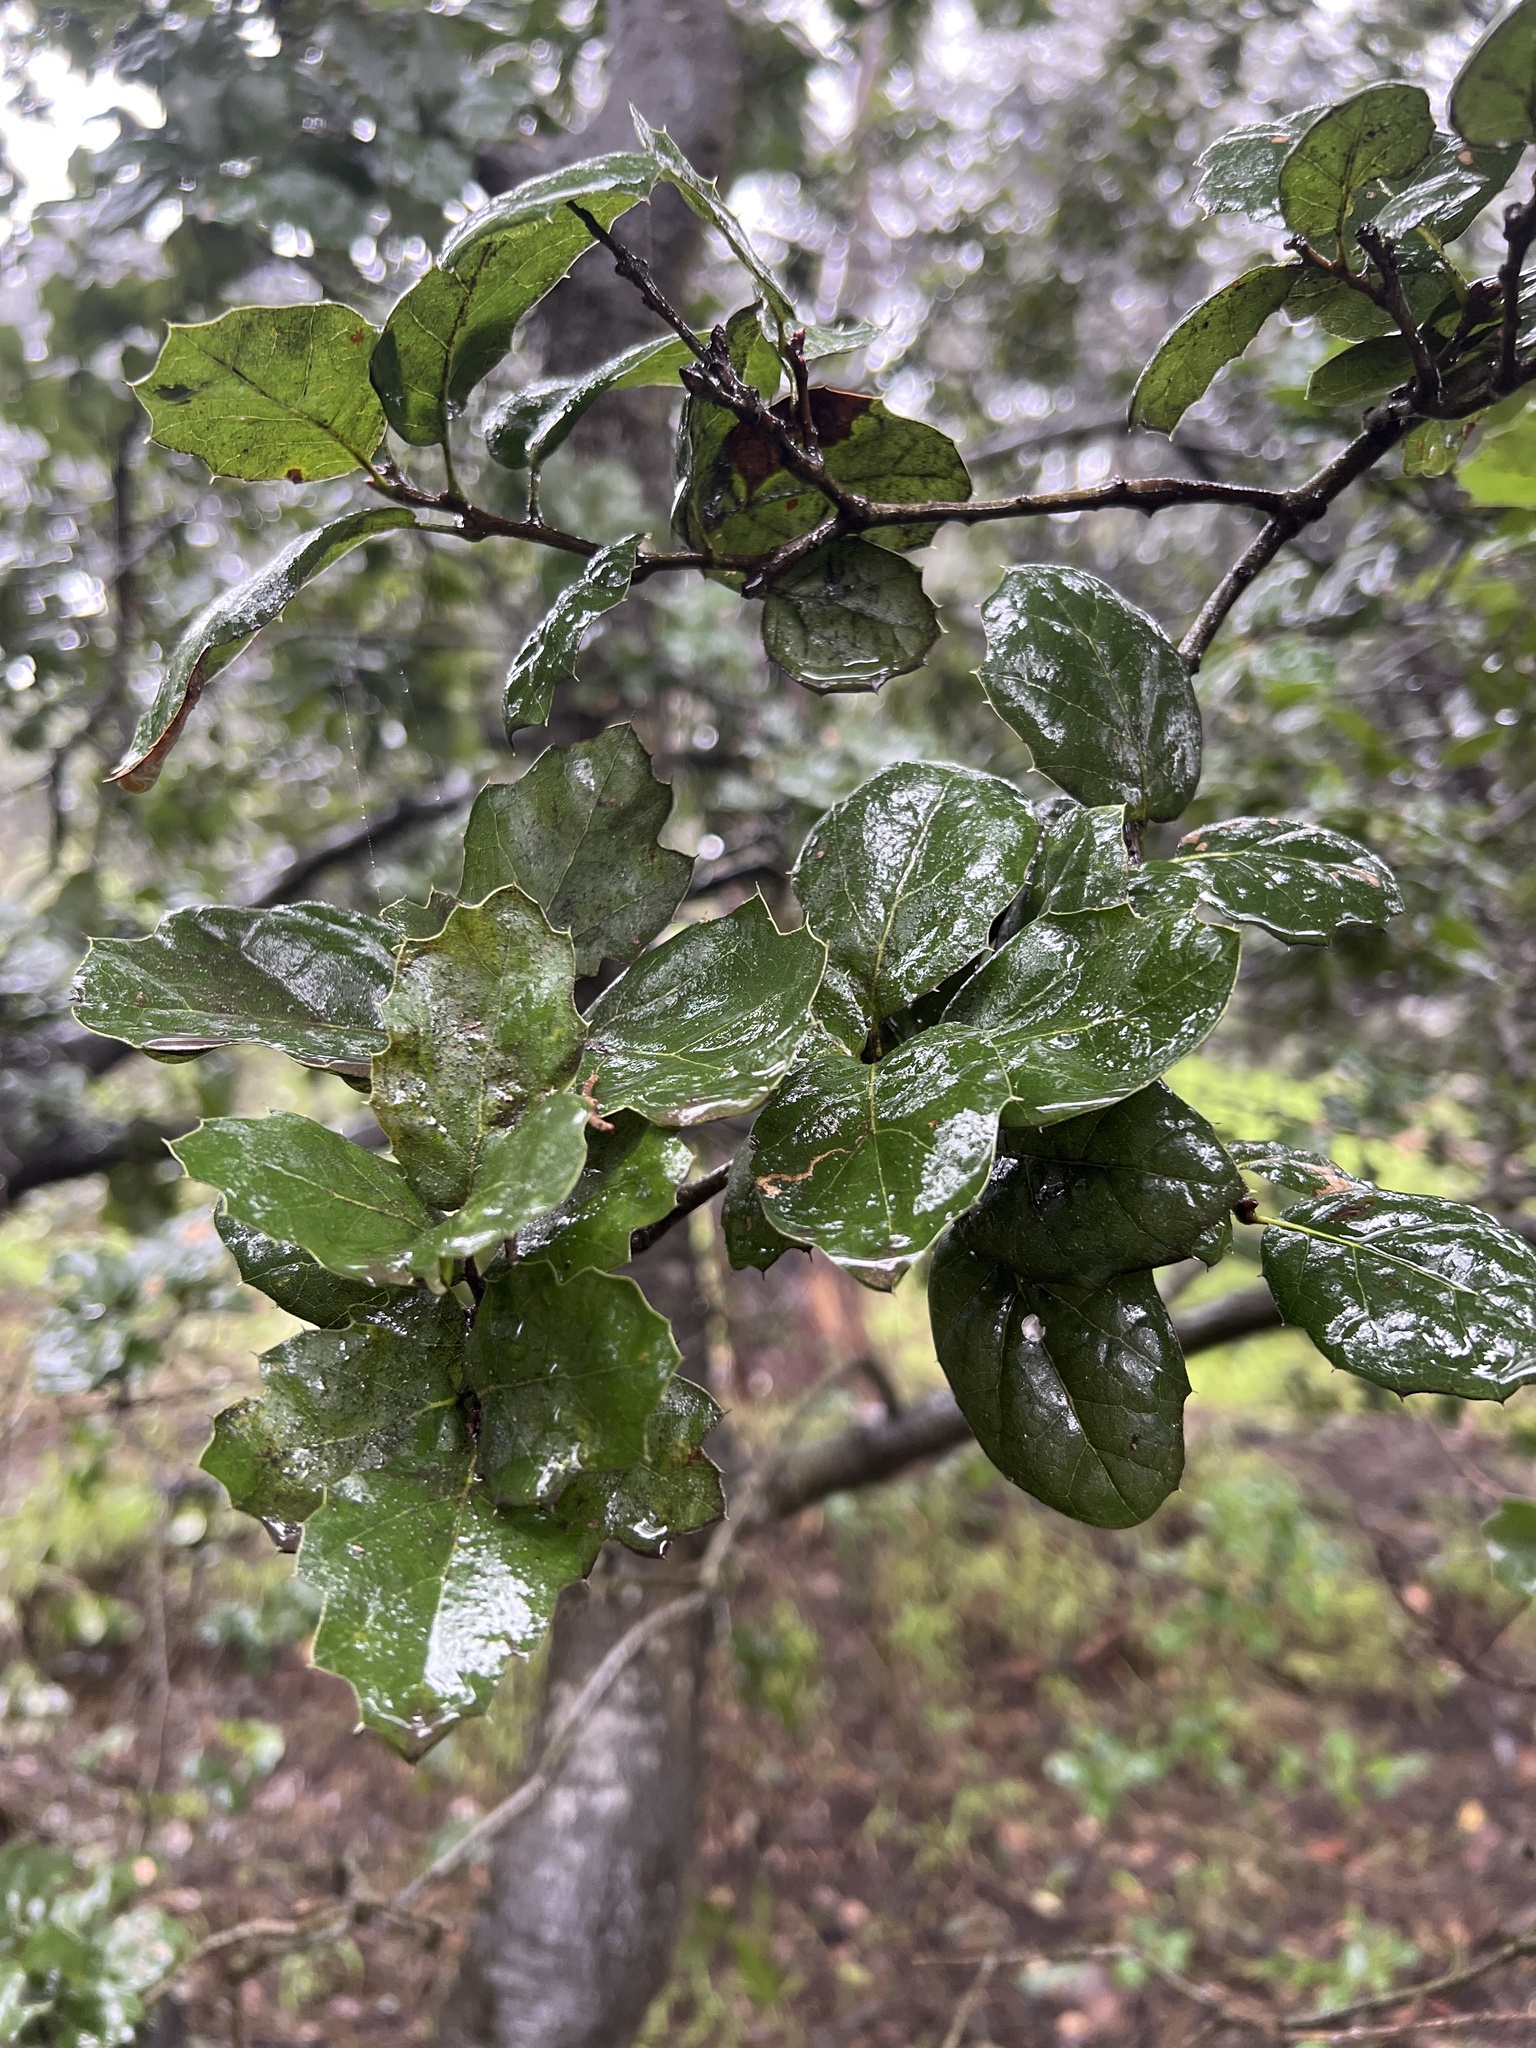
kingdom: Plantae
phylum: Tracheophyta
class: Magnoliopsida
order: Fagales
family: Fagaceae
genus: Quercus
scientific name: Quercus agrifolia
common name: California live oak
